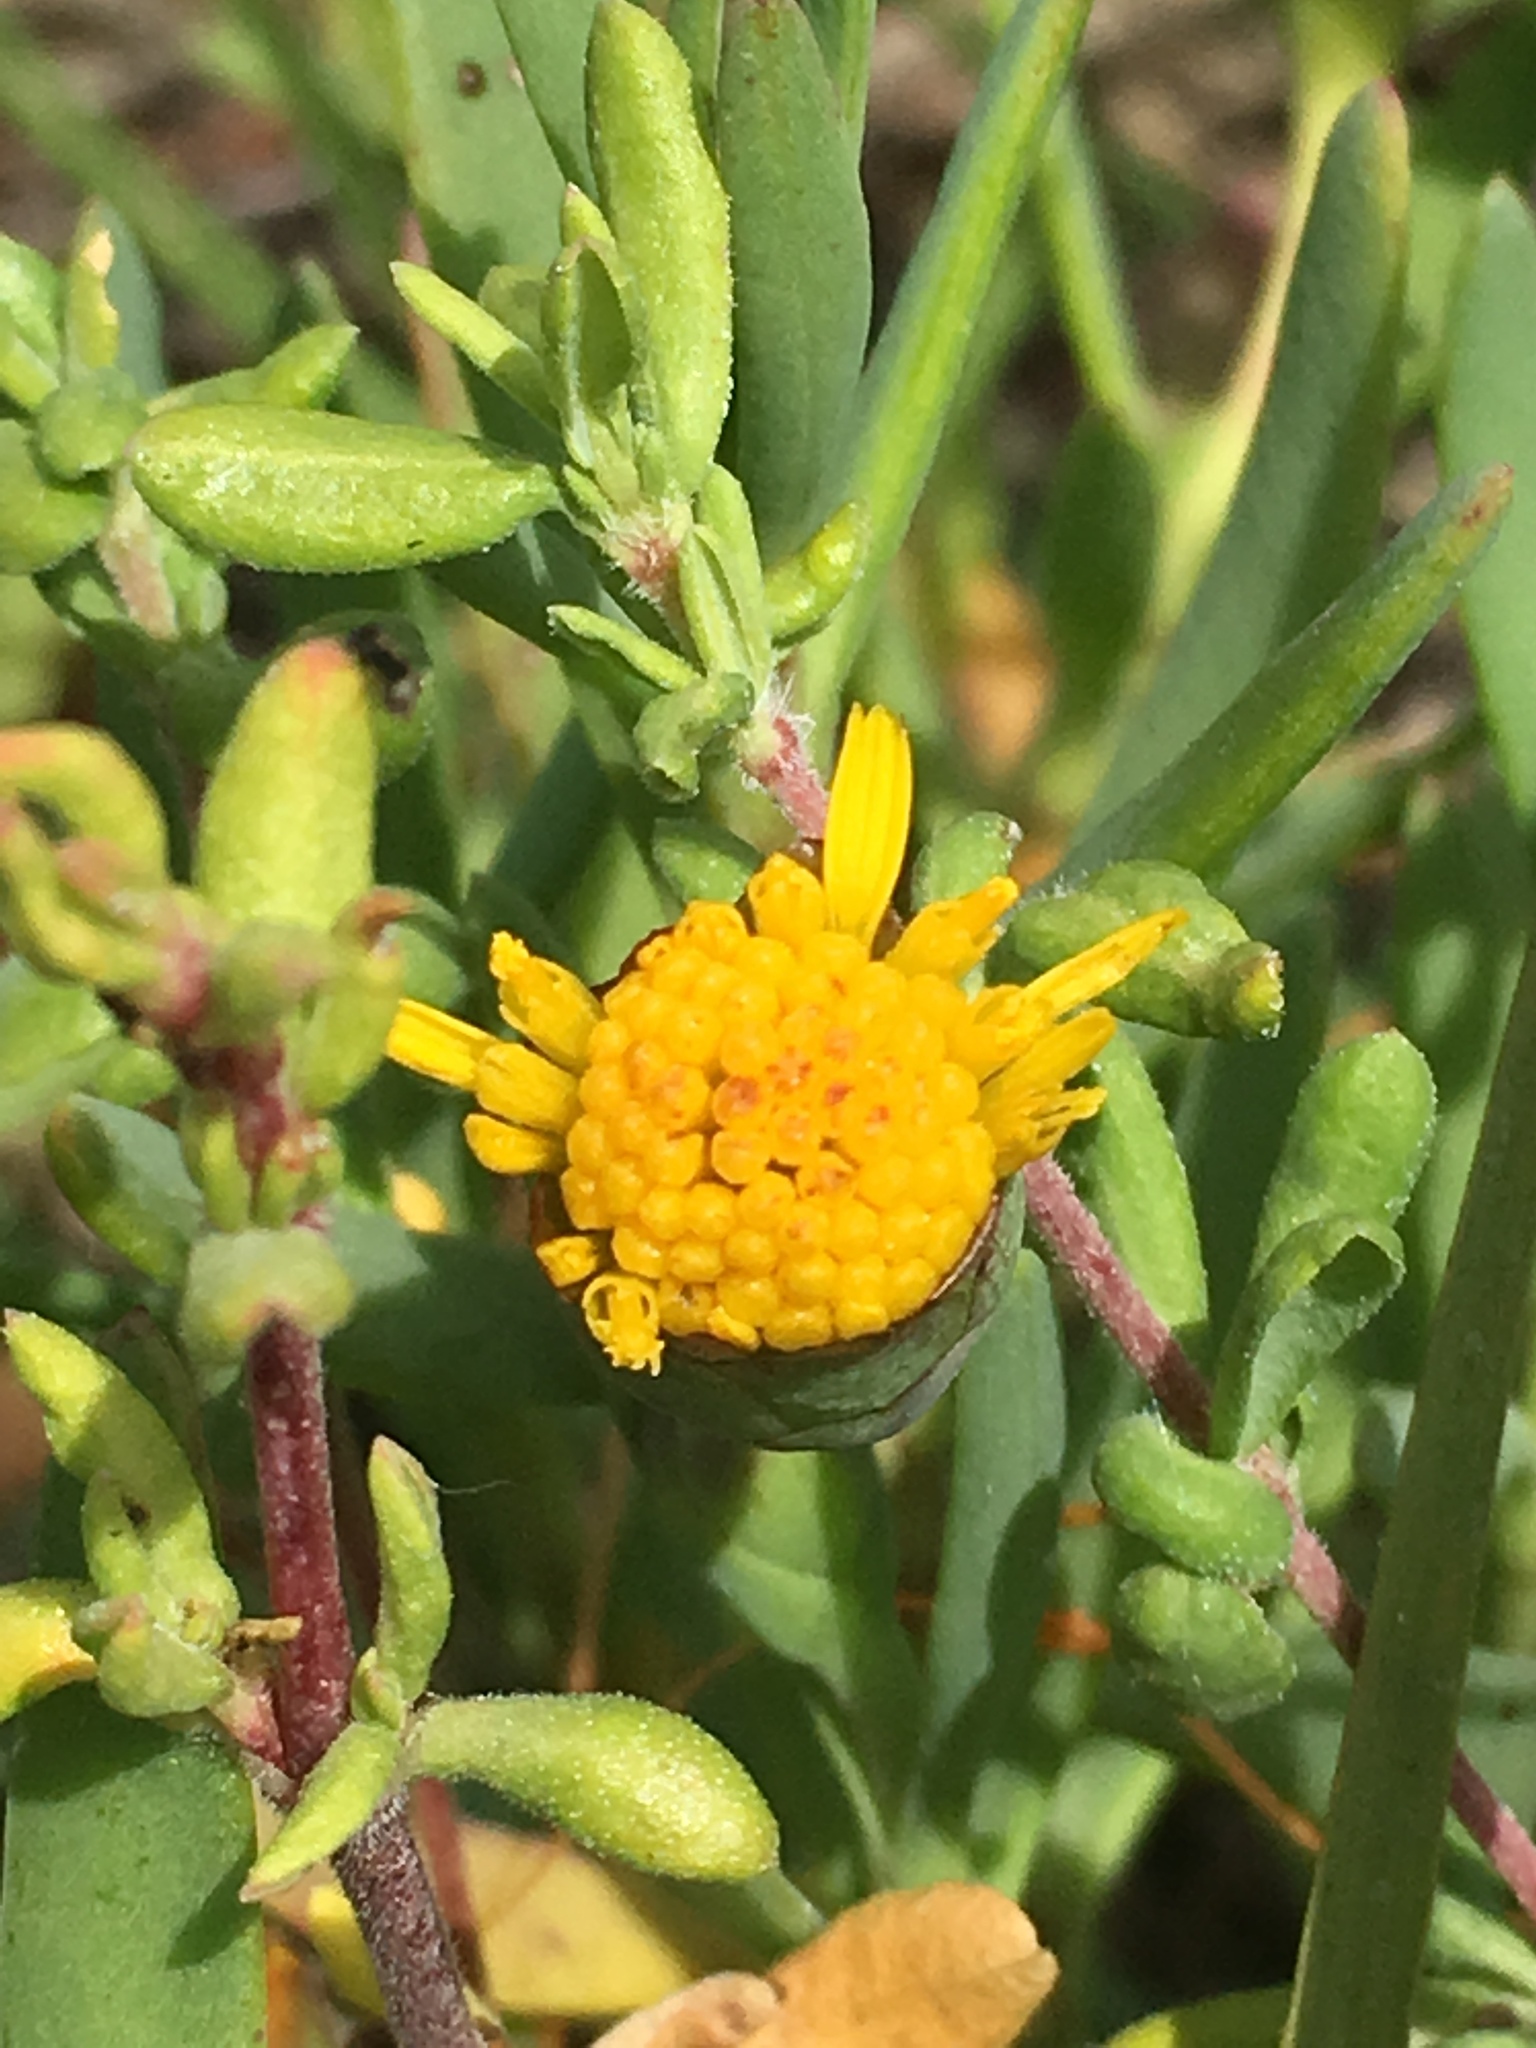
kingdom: Plantae
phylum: Tracheophyta
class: Magnoliopsida
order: Asterales
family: Asteraceae
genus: Jaumea
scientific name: Jaumea carnosa
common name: Fleshy jaumea
